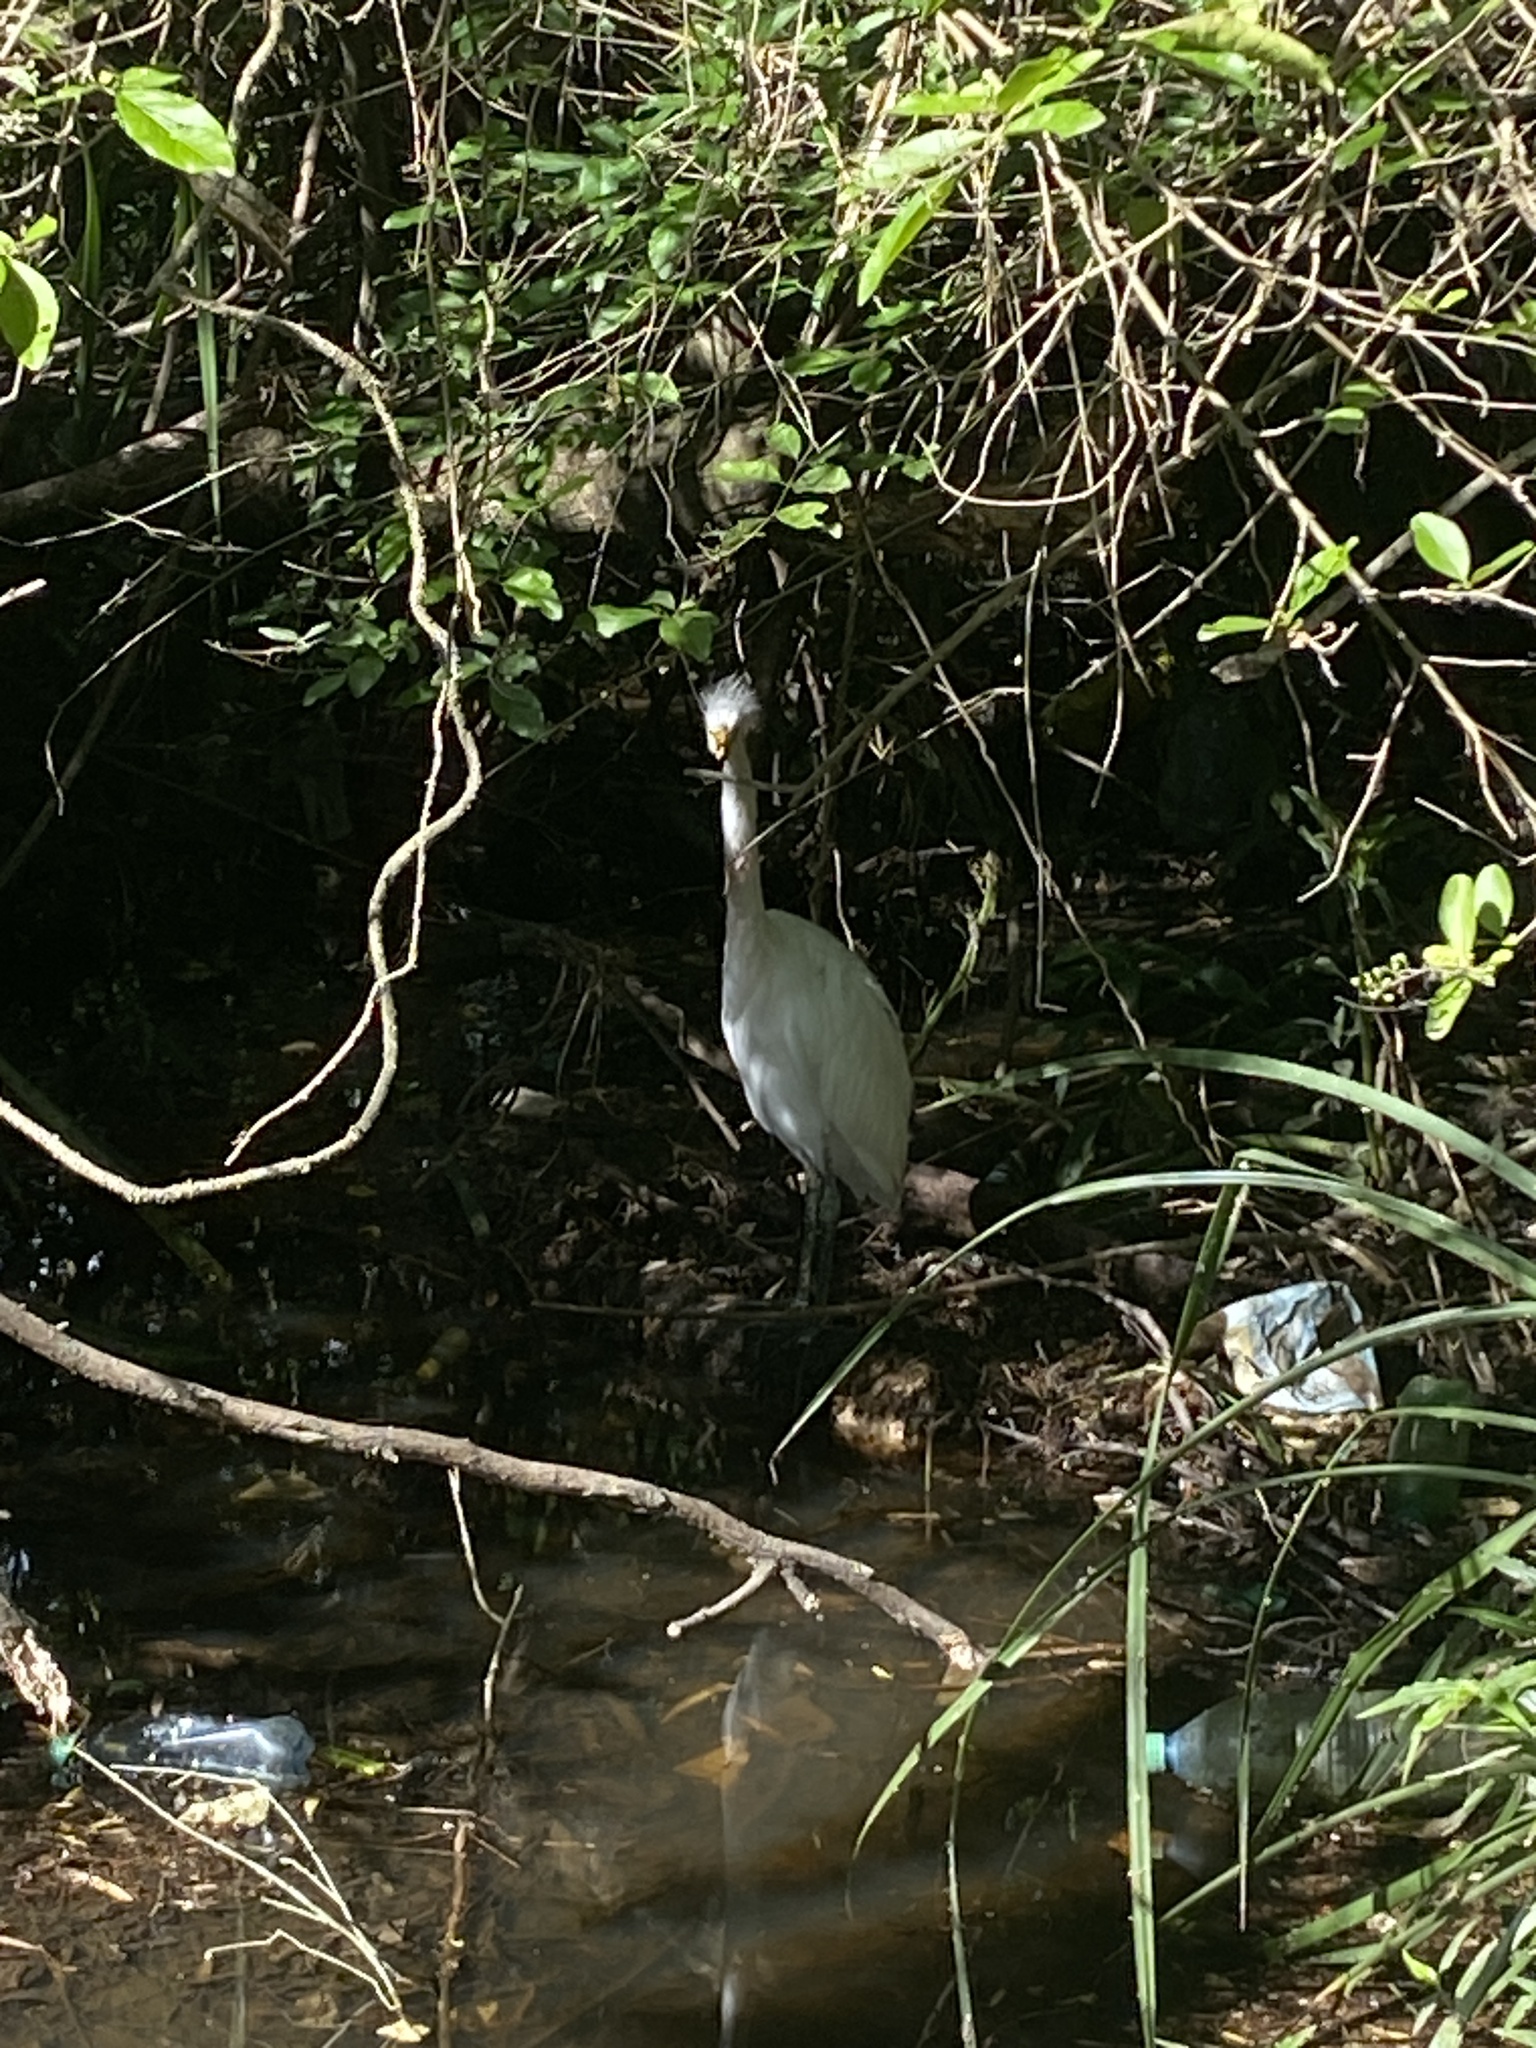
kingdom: Animalia
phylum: Chordata
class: Aves
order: Pelecaniformes
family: Ardeidae
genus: Ardea
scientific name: Ardea alba
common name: Great egret
